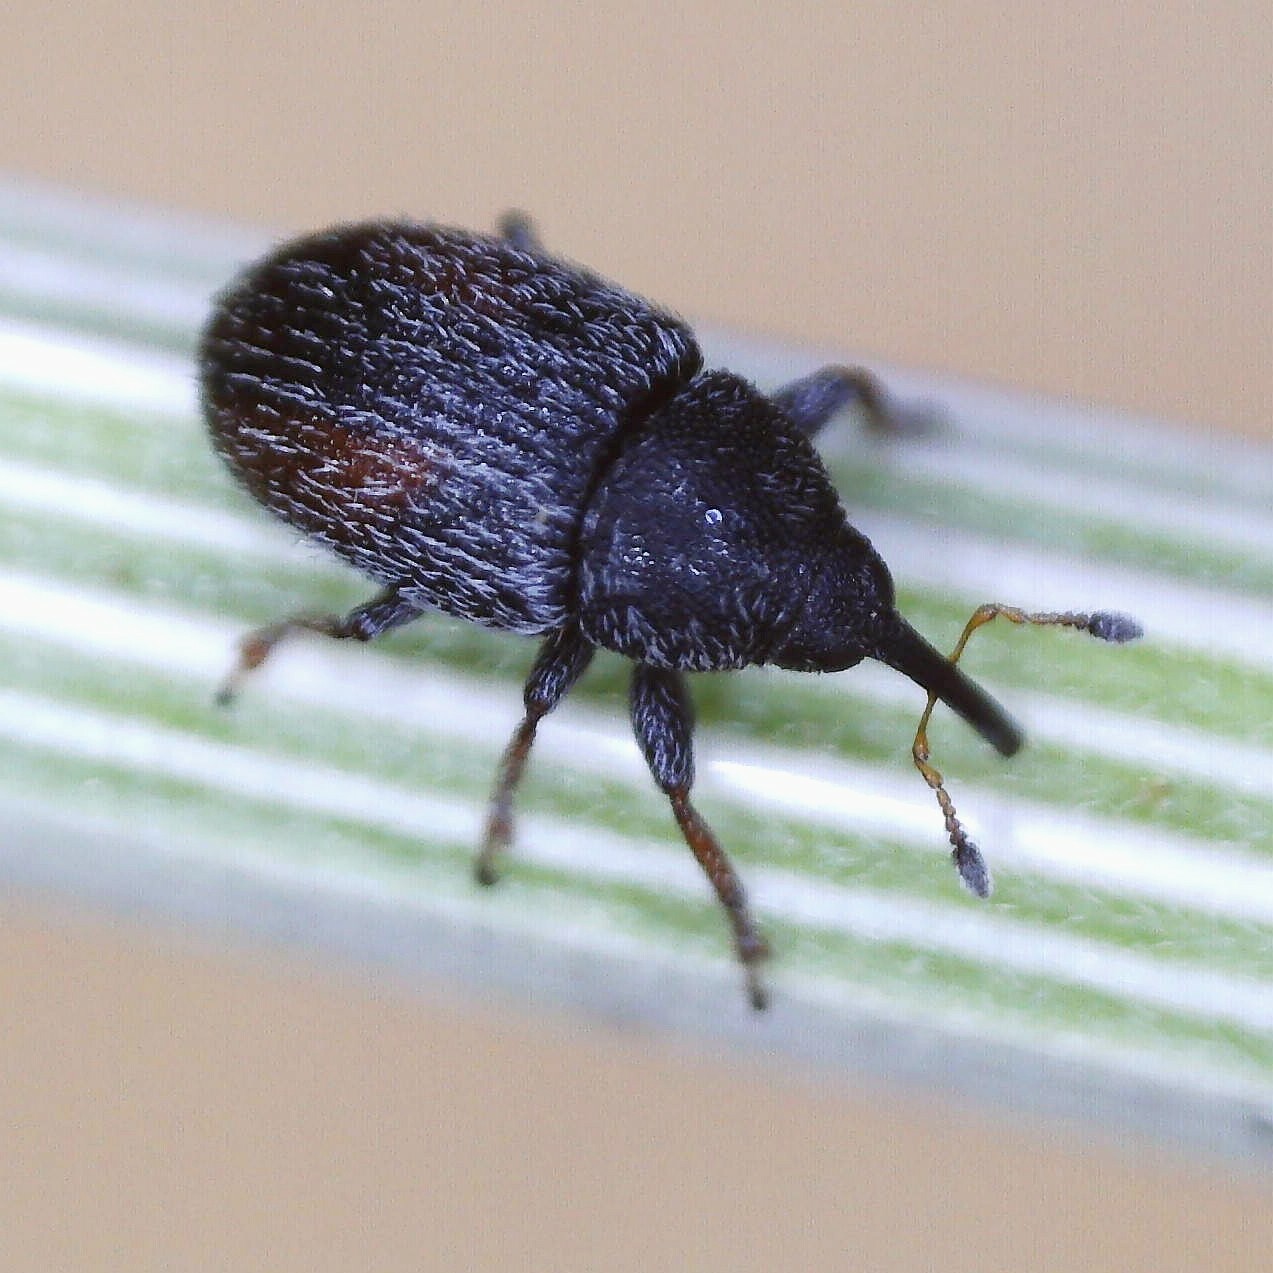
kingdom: Animalia
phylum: Arthropoda
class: Insecta
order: Coleoptera
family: Curculionidae
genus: Mecinus
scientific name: Mecinus pascuorum
